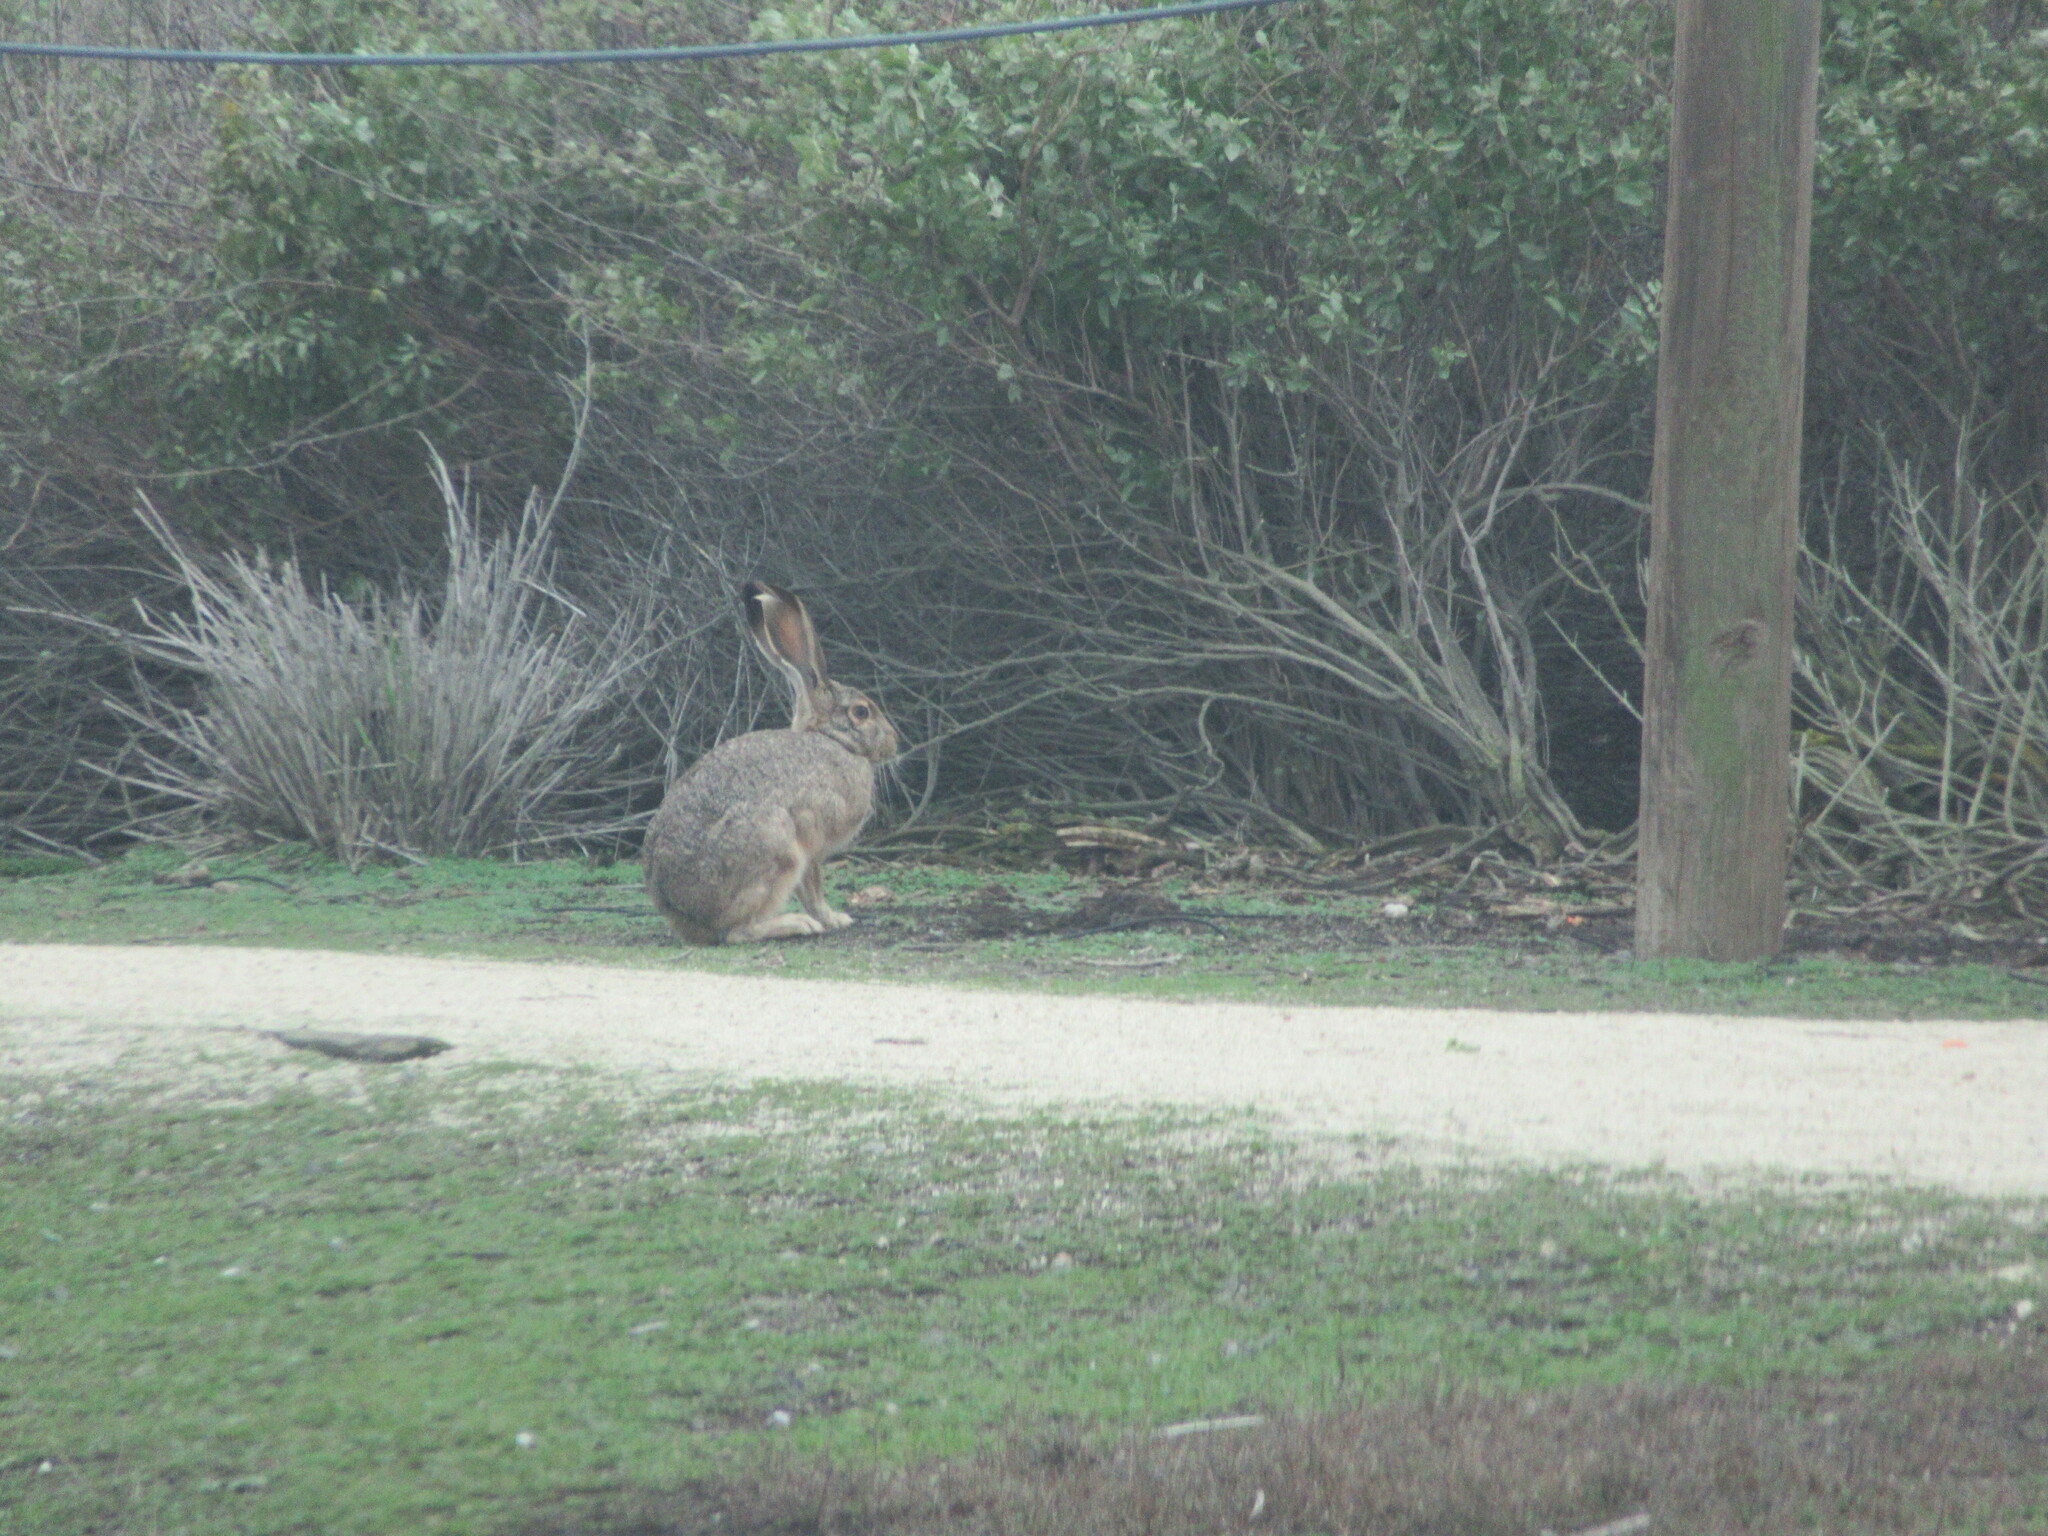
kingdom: Animalia
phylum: Chordata
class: Mammalia
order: Lagomorpha
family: Leporidae
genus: Lepus
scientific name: Lepus californicus
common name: Black-tailed jackrabbit
